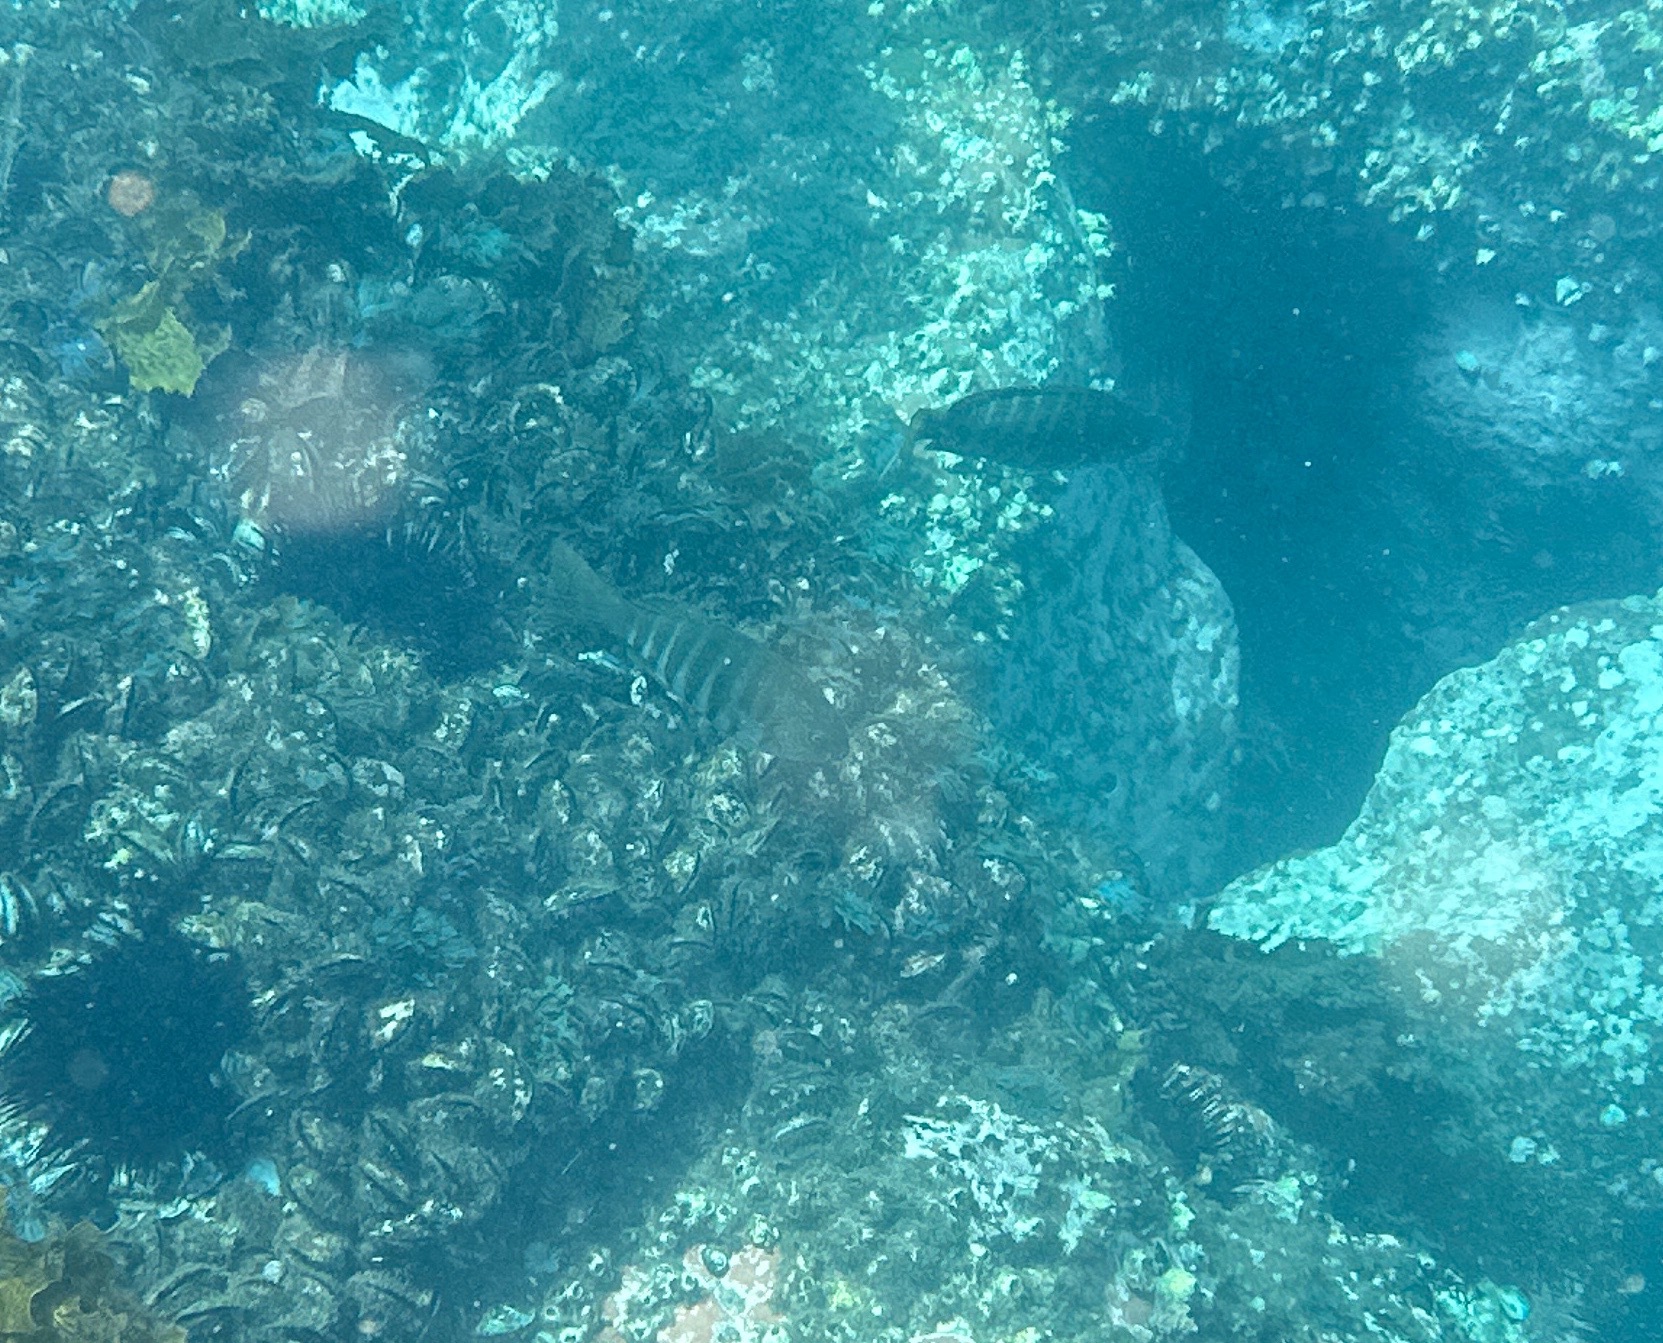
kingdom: Animalia
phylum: Chordata
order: Perciformes
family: Kyphosidae
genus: Girella
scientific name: Girella tricuspidata
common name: Parore
